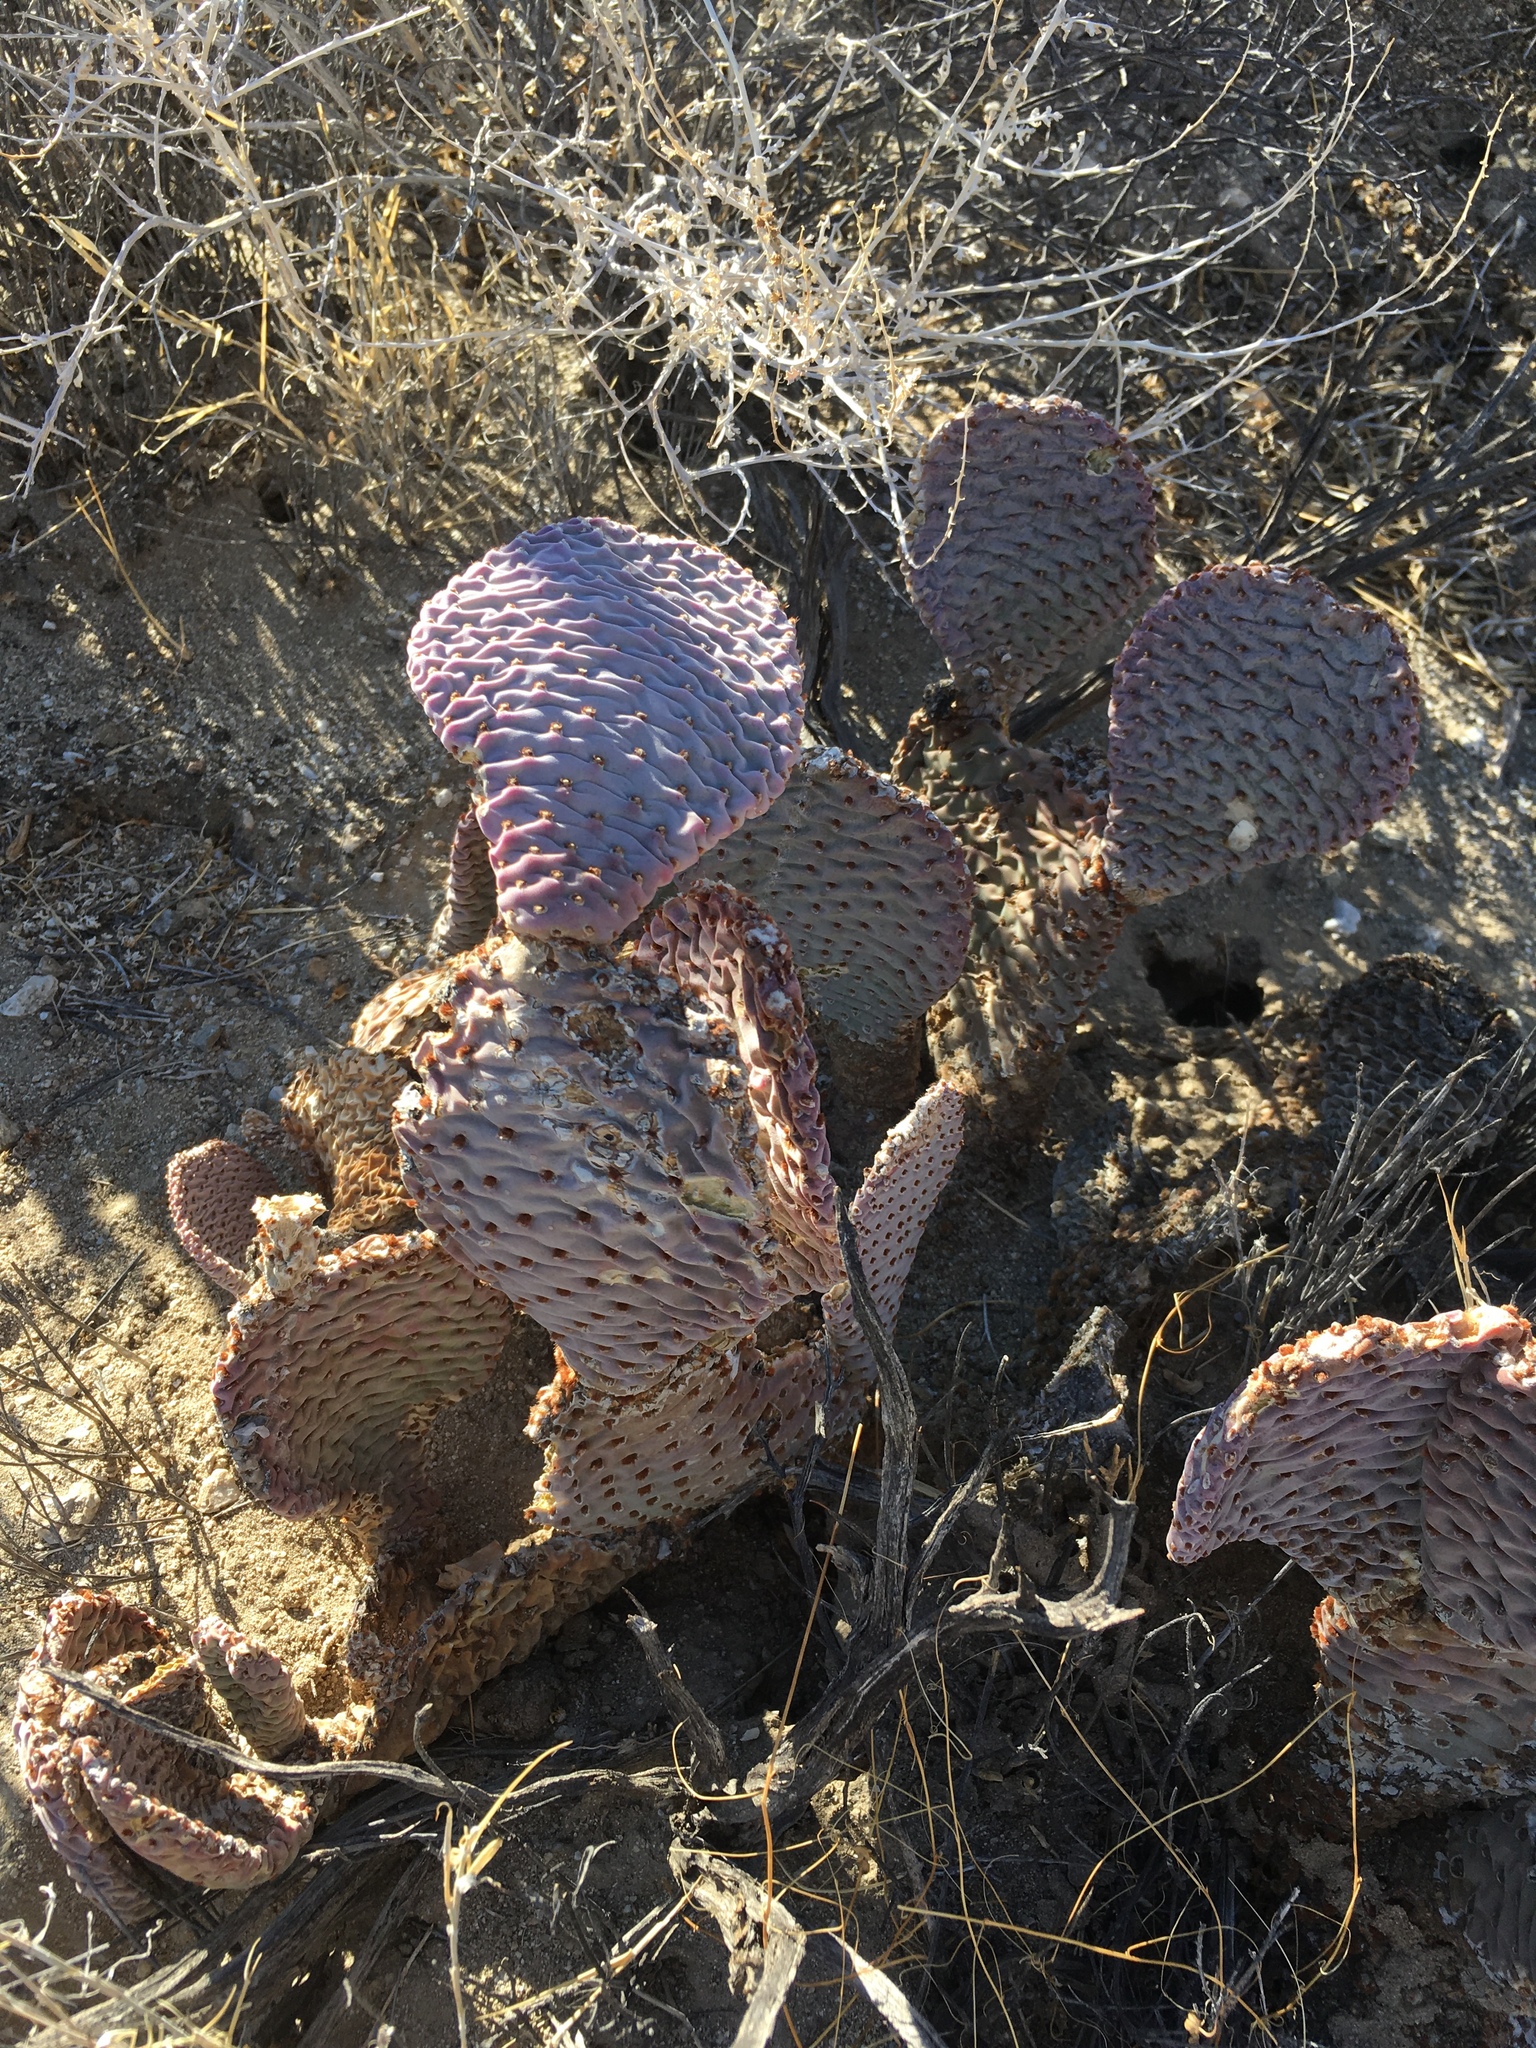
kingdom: Plantae
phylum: Tracheophyta
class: Magnoliopsida
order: Caryophyllales
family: Cactaceae
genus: Opuntia
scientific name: Opuntia basilaris
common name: Beavertail prickly-pear
